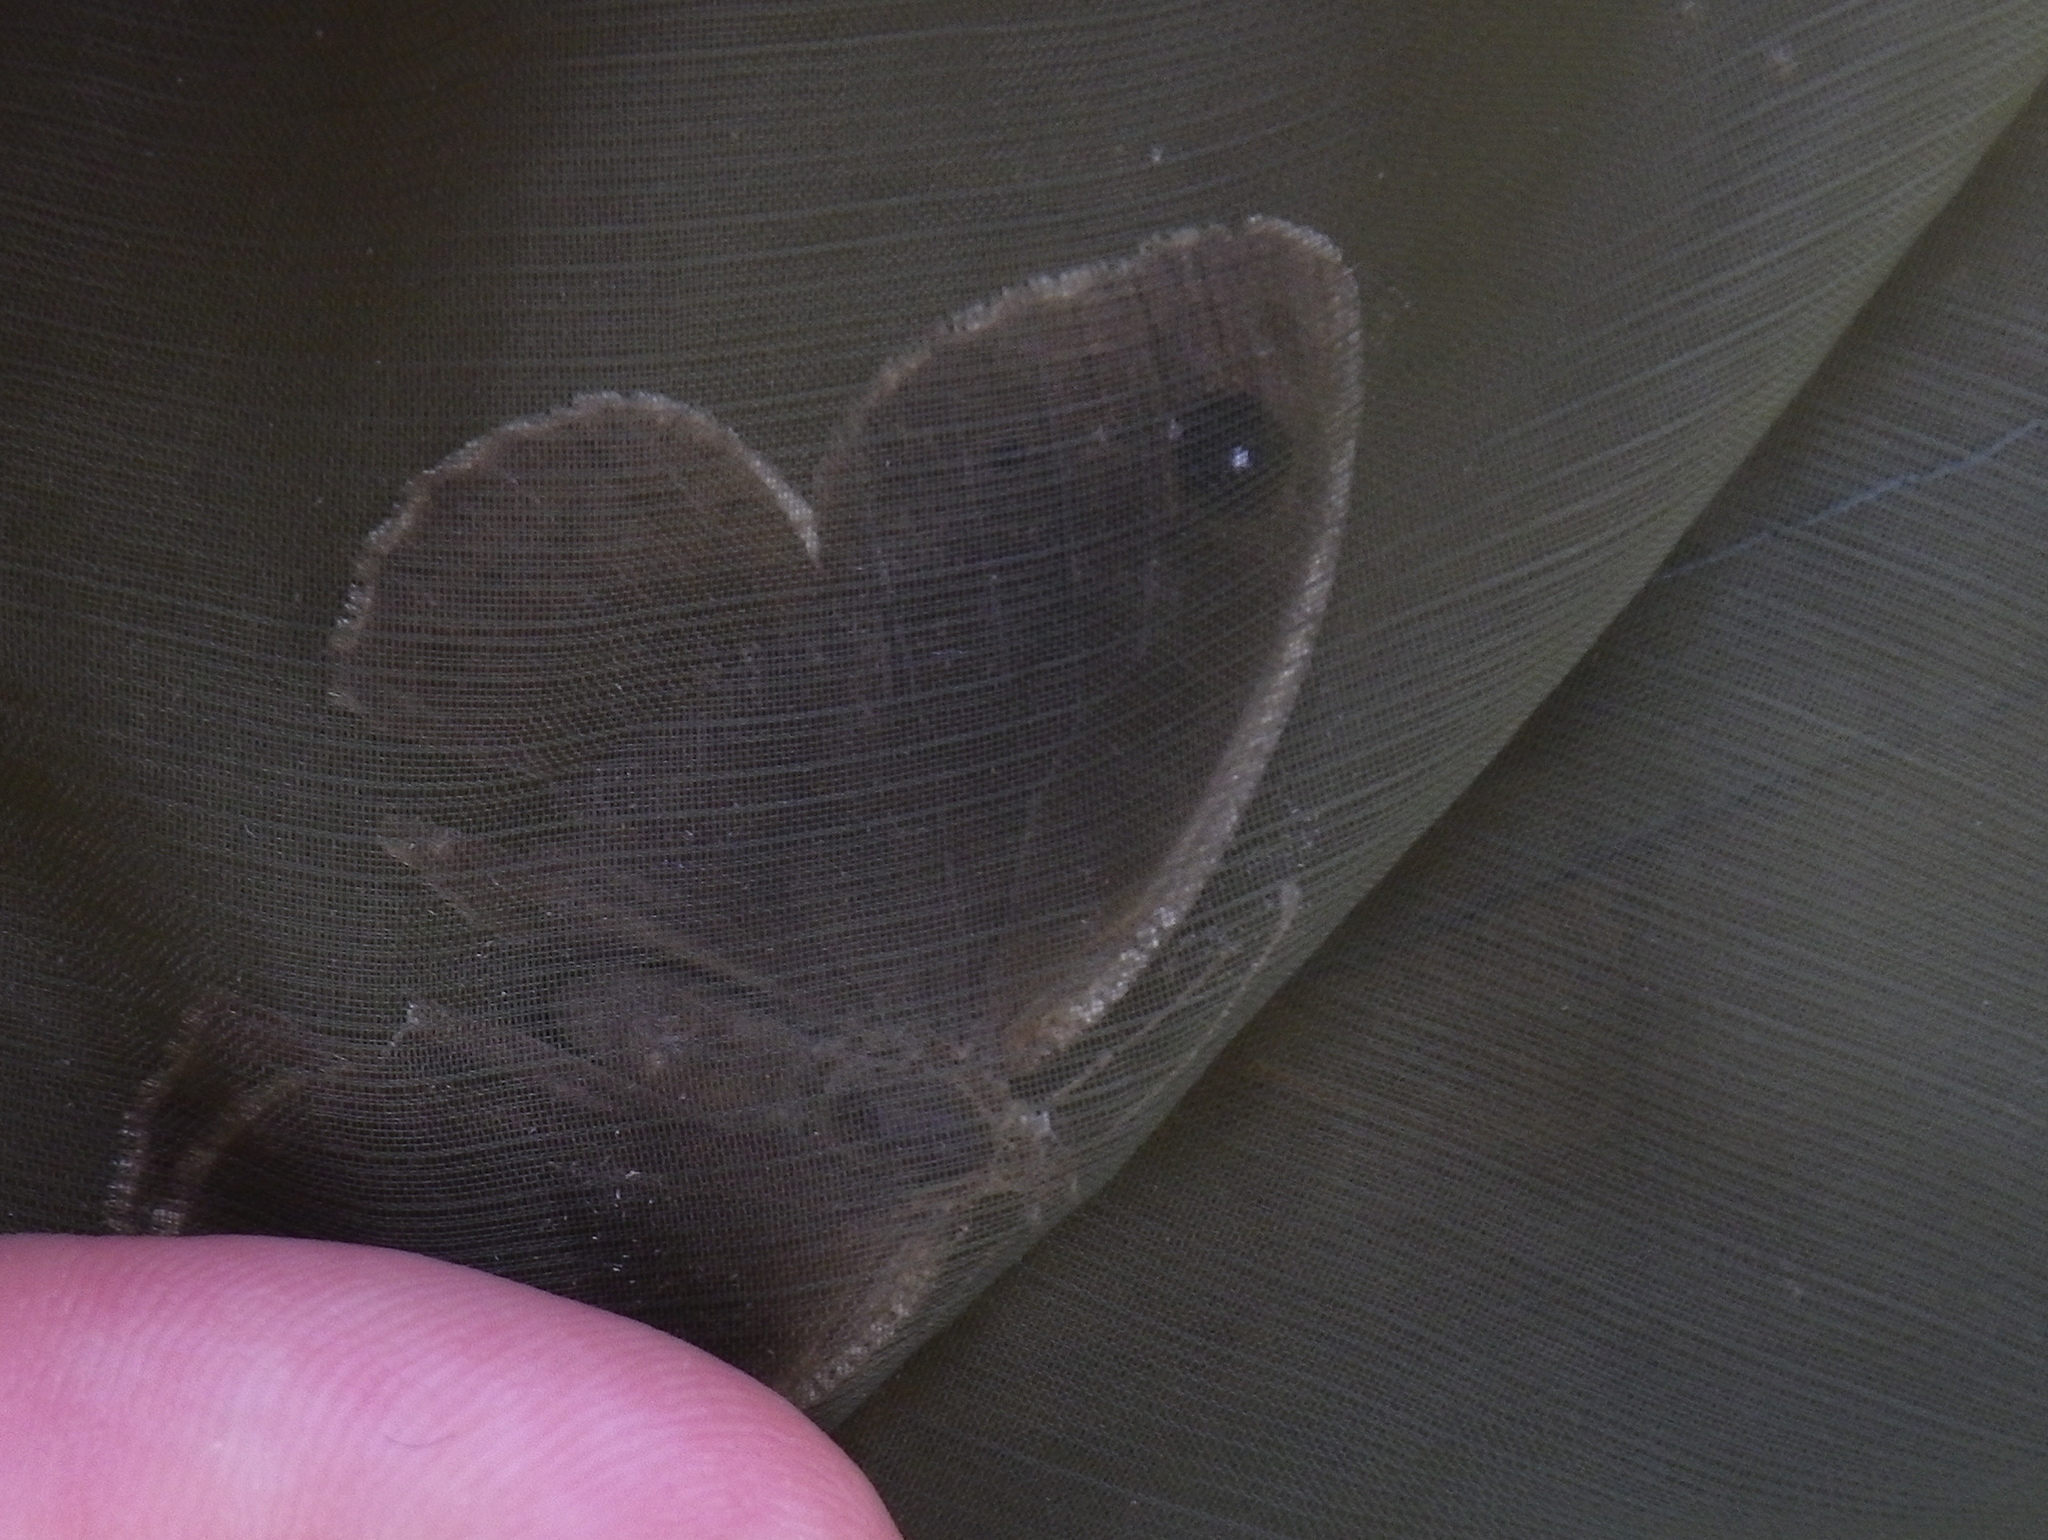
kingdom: Animalia
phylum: Arthropoda
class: Insecta
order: Lepidoptera
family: Nymphalidae
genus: Satyrus
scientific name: Satyrus actaea
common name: Black satyr
